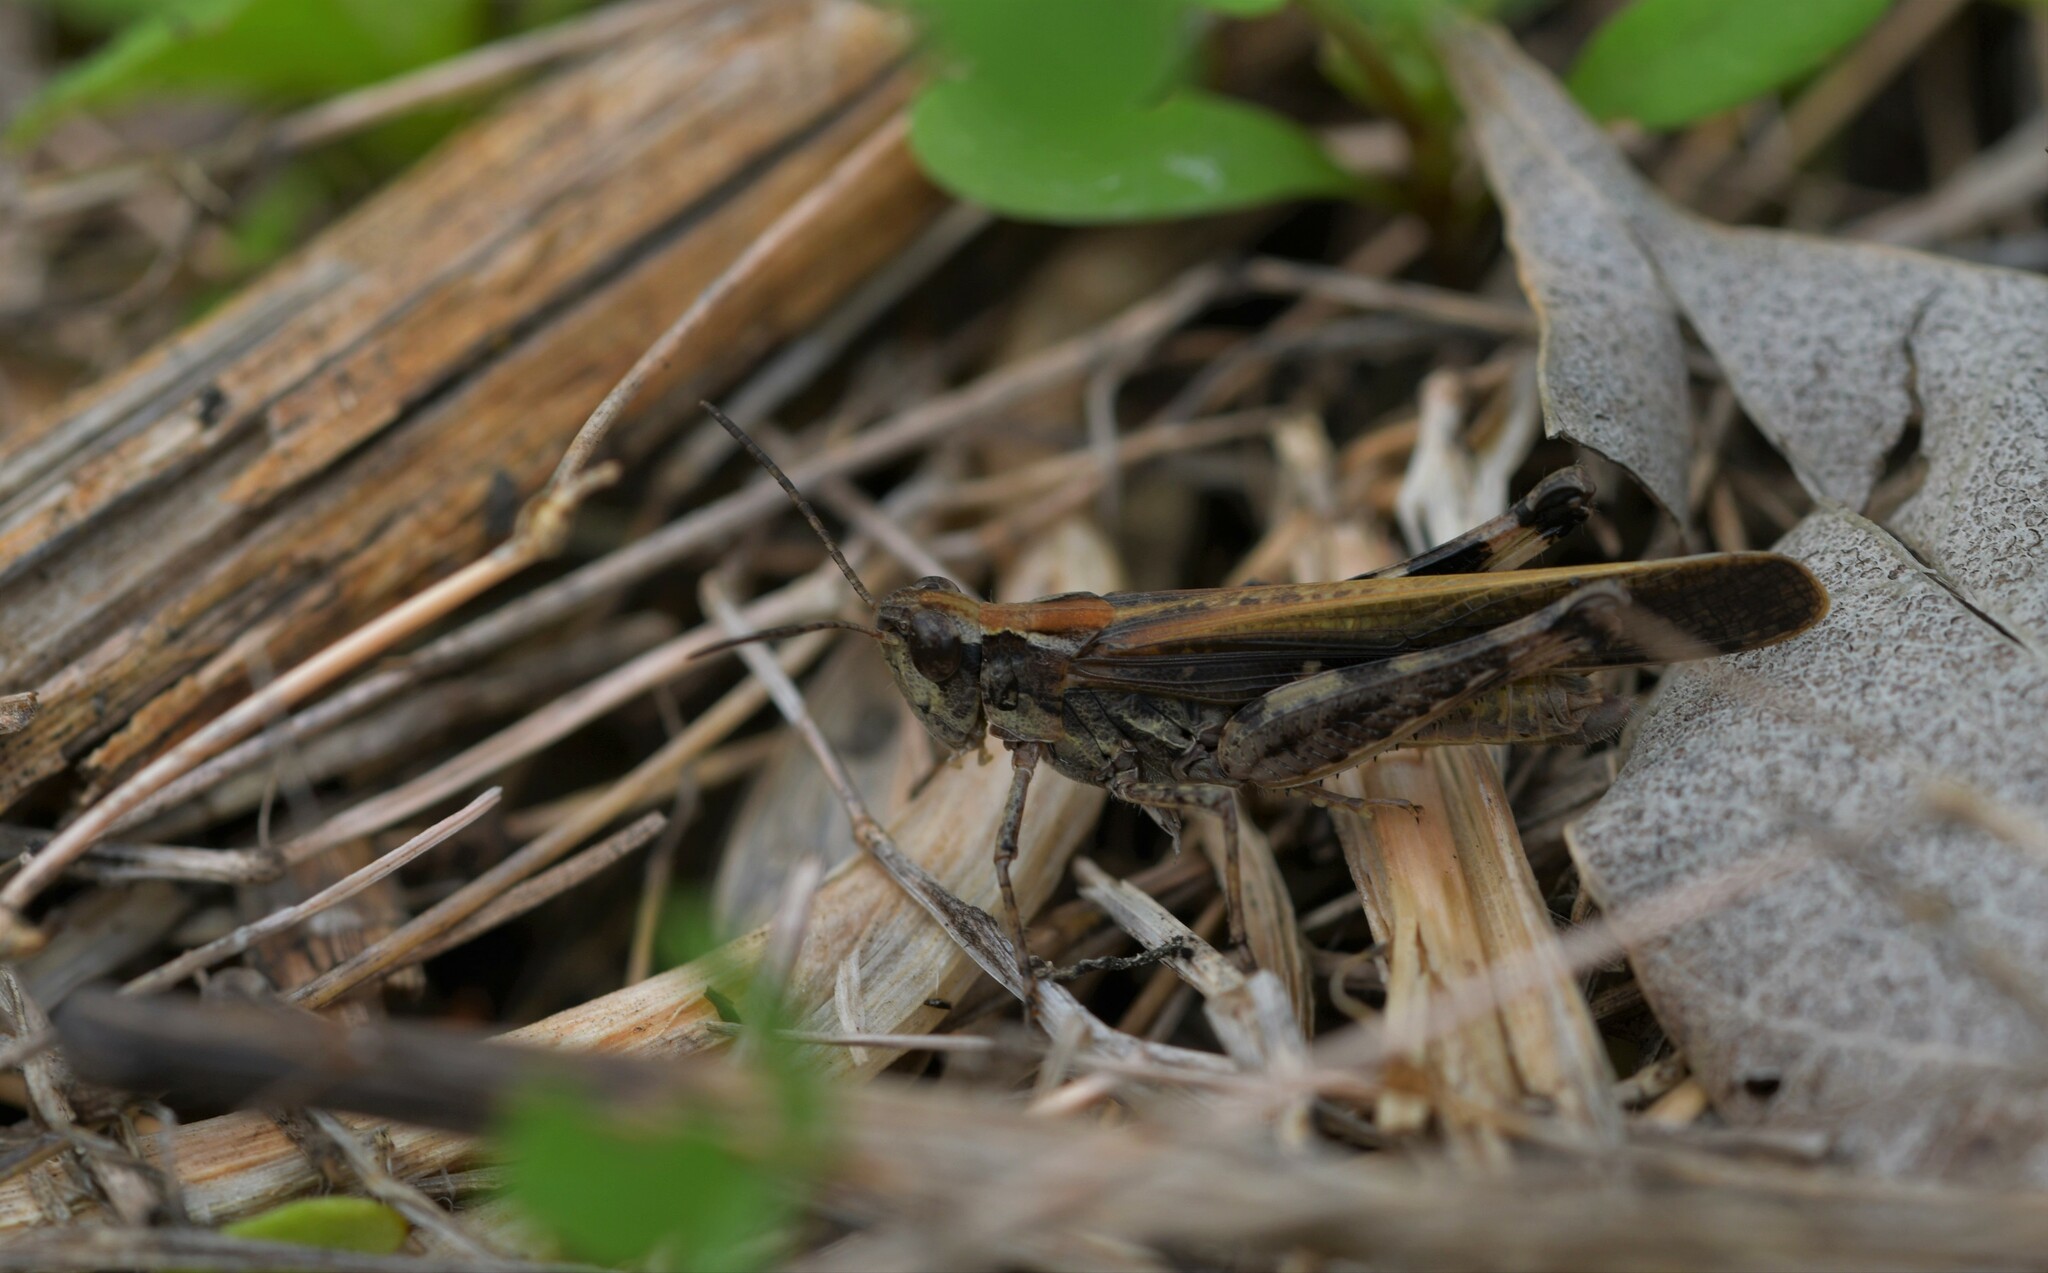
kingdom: Animalia
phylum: Arthropoda
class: Insecta
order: Orthoptera
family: Acrididae
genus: Aiolopus
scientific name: Aiolopus puissanti
